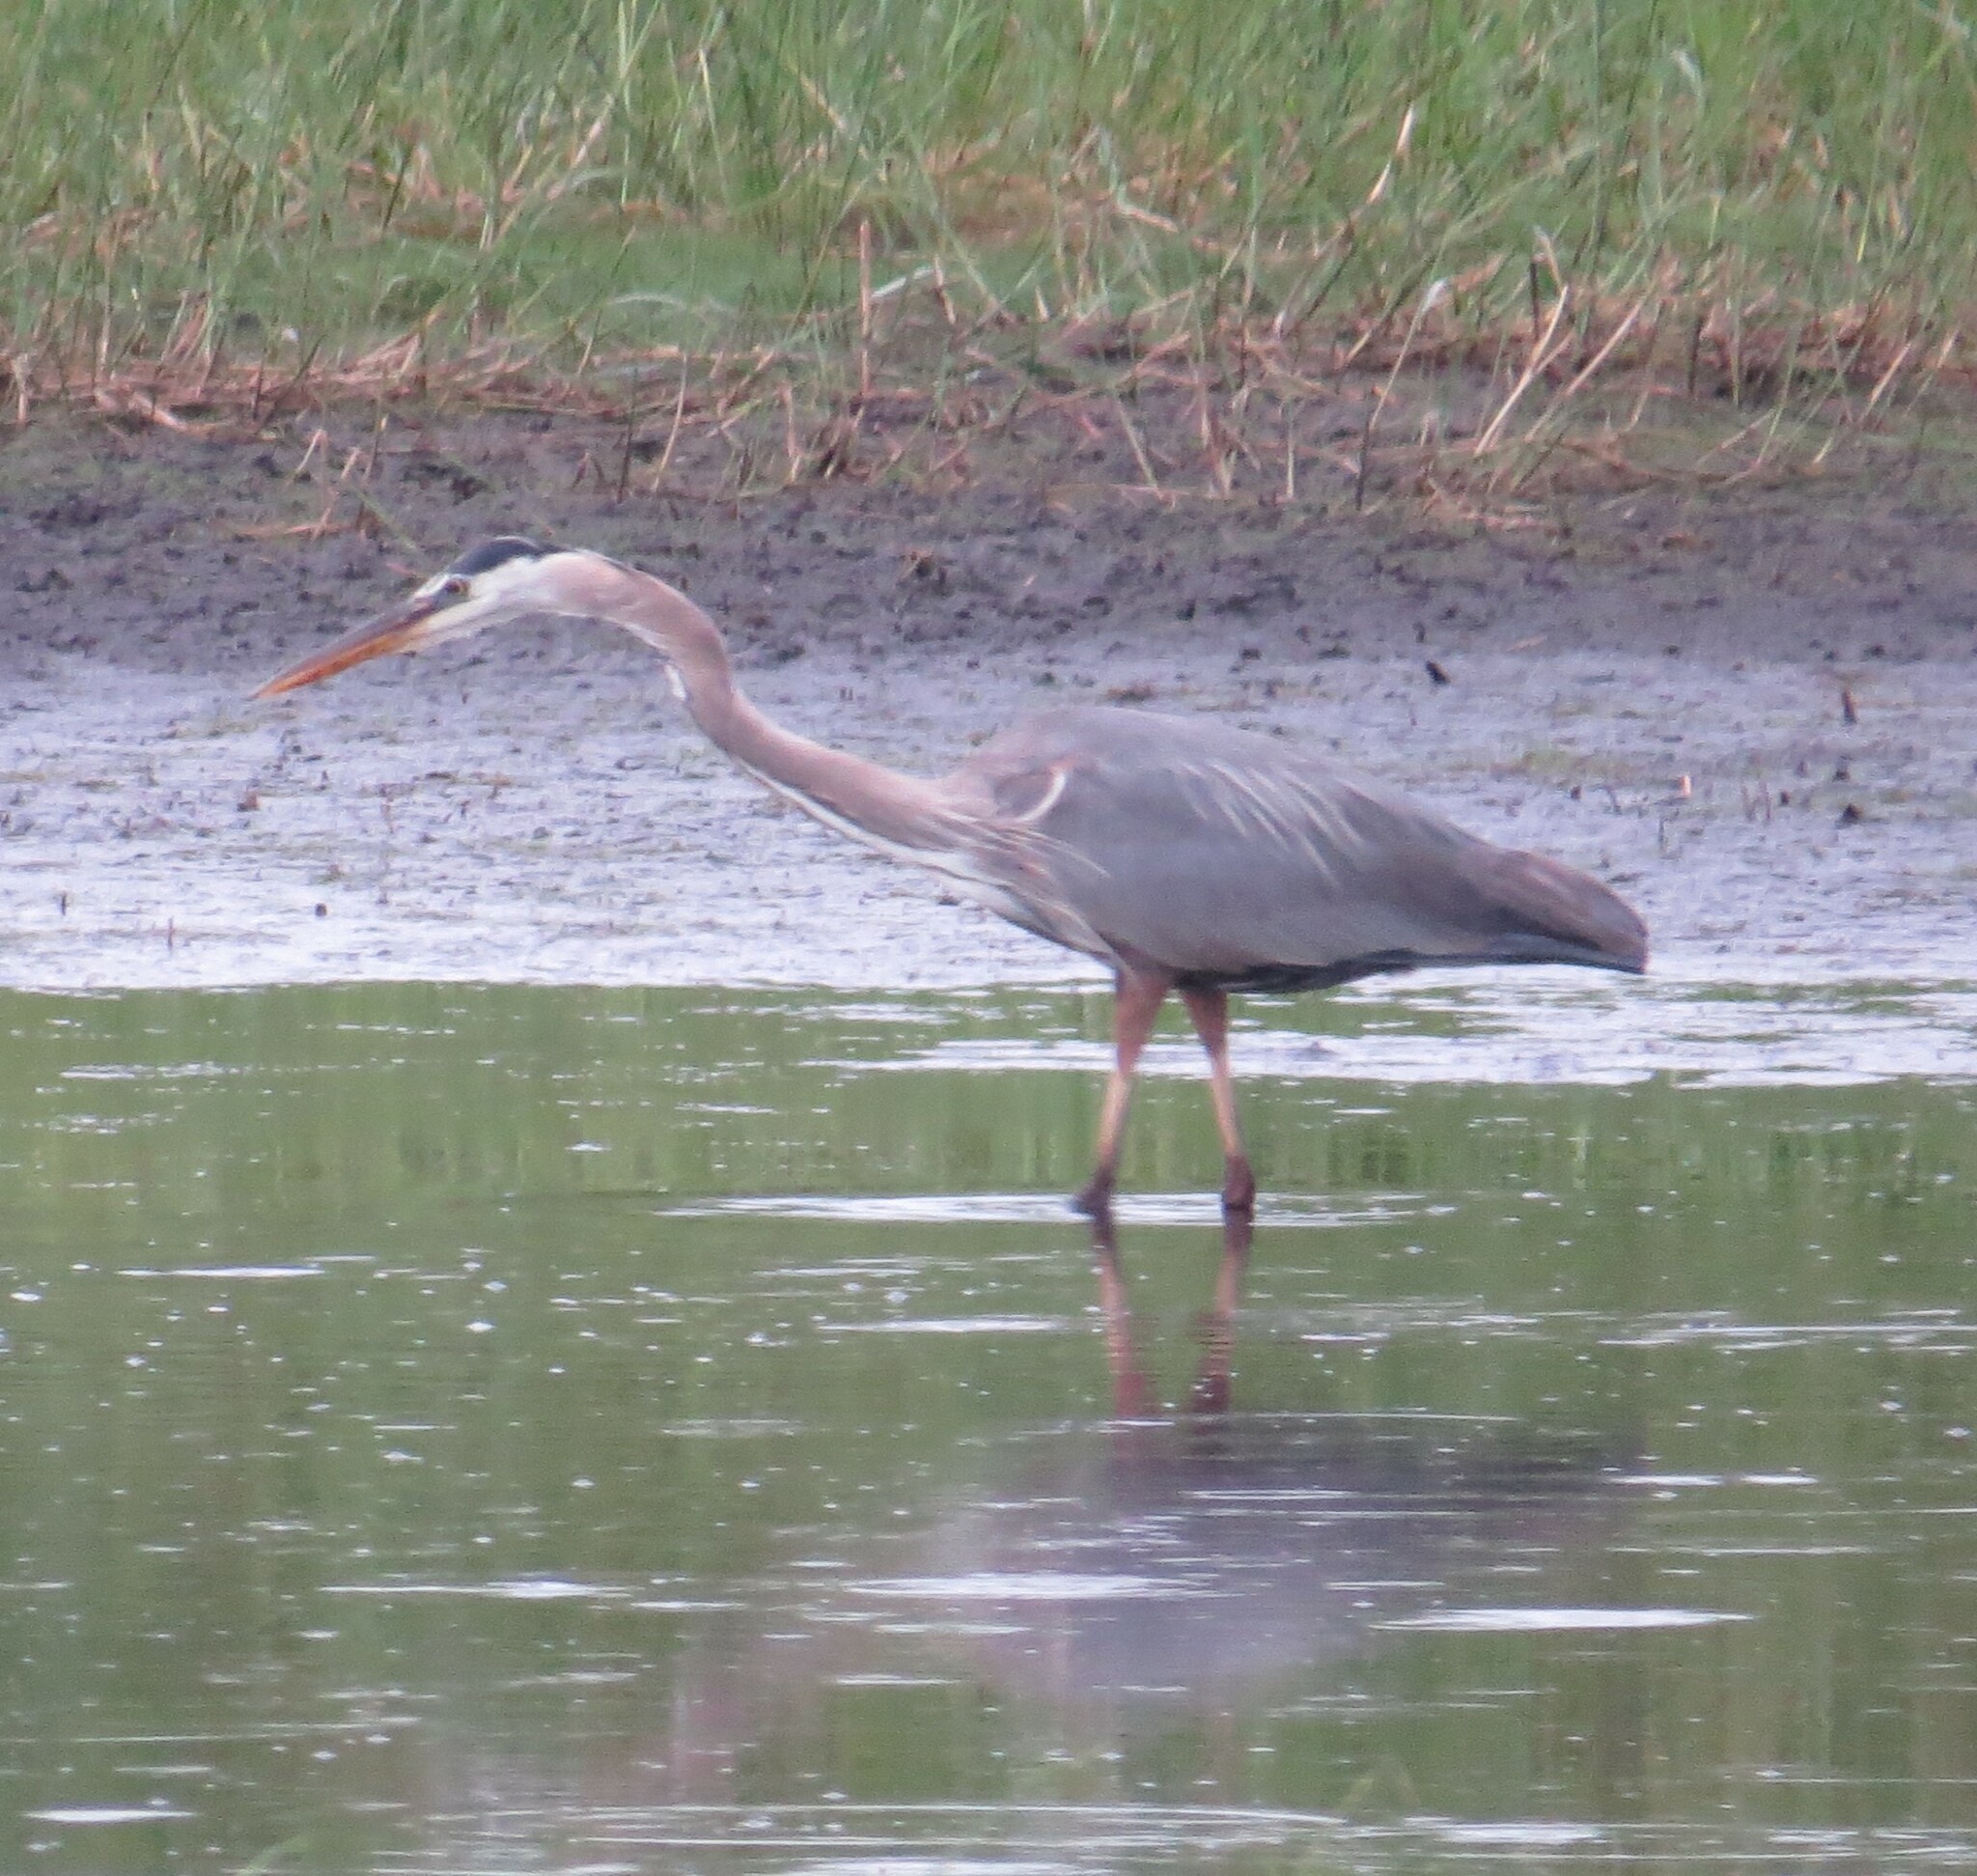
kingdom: Animalia
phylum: Chordata
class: Aves
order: Pelecaniformes
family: Ardeidae
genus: Ardea
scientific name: Ardea herodias
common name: Great blue heron
